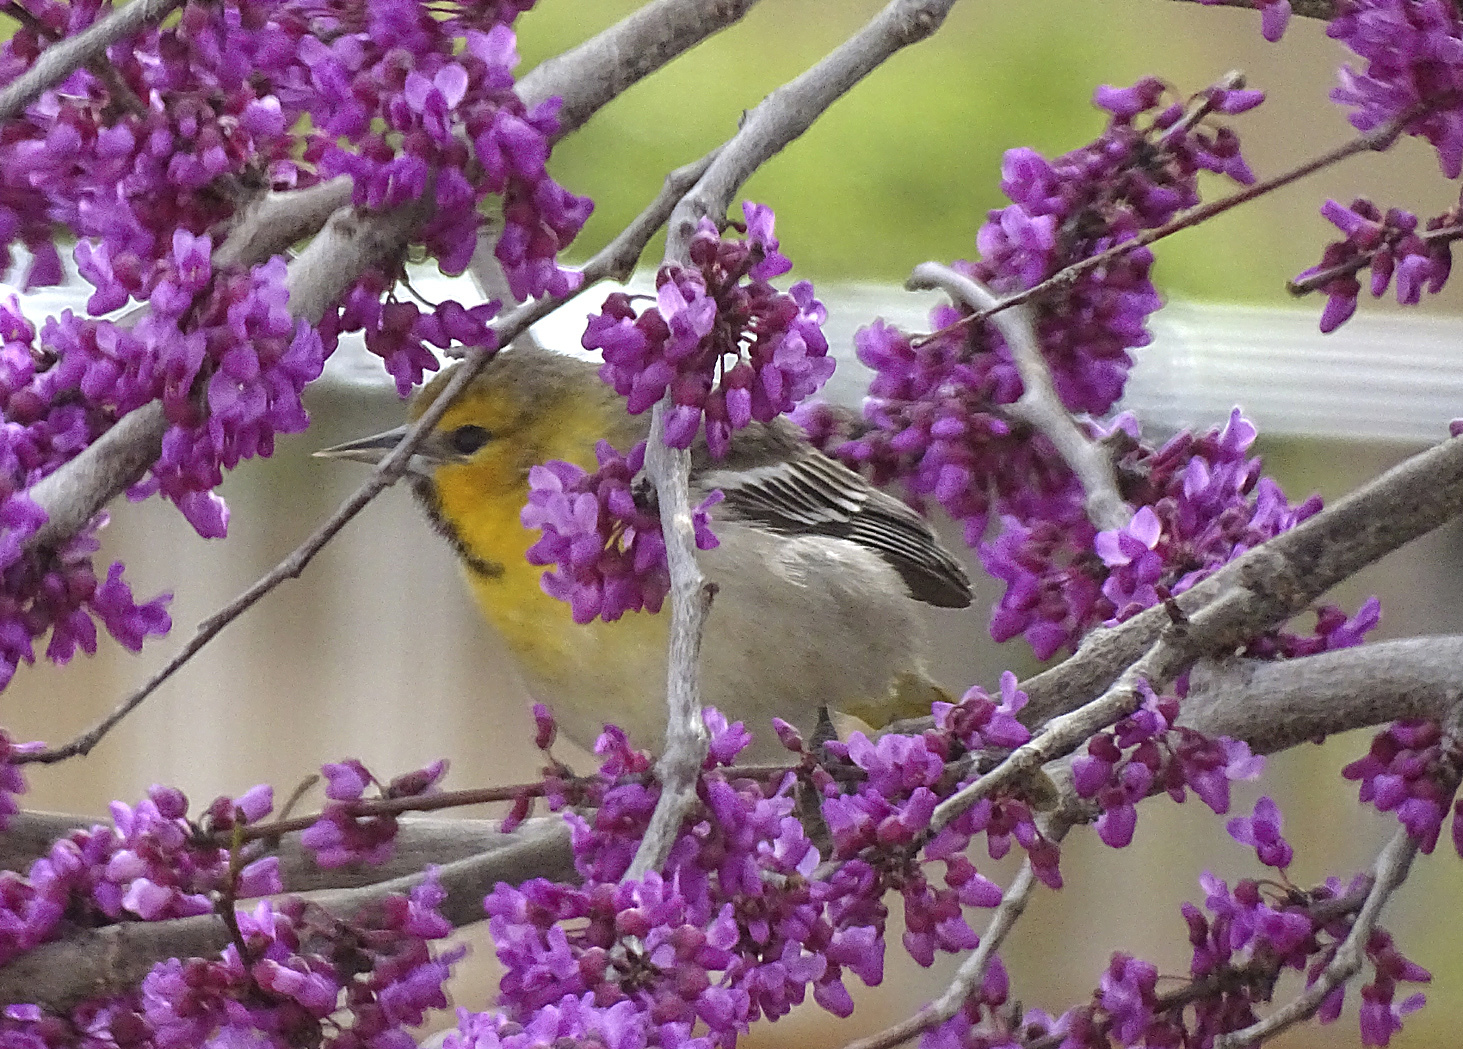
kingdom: Animalia
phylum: Chordata
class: Aves
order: Passeriformes
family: Icteridae
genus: Icterus
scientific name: Icterus bullockii
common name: Bullock's oriole
